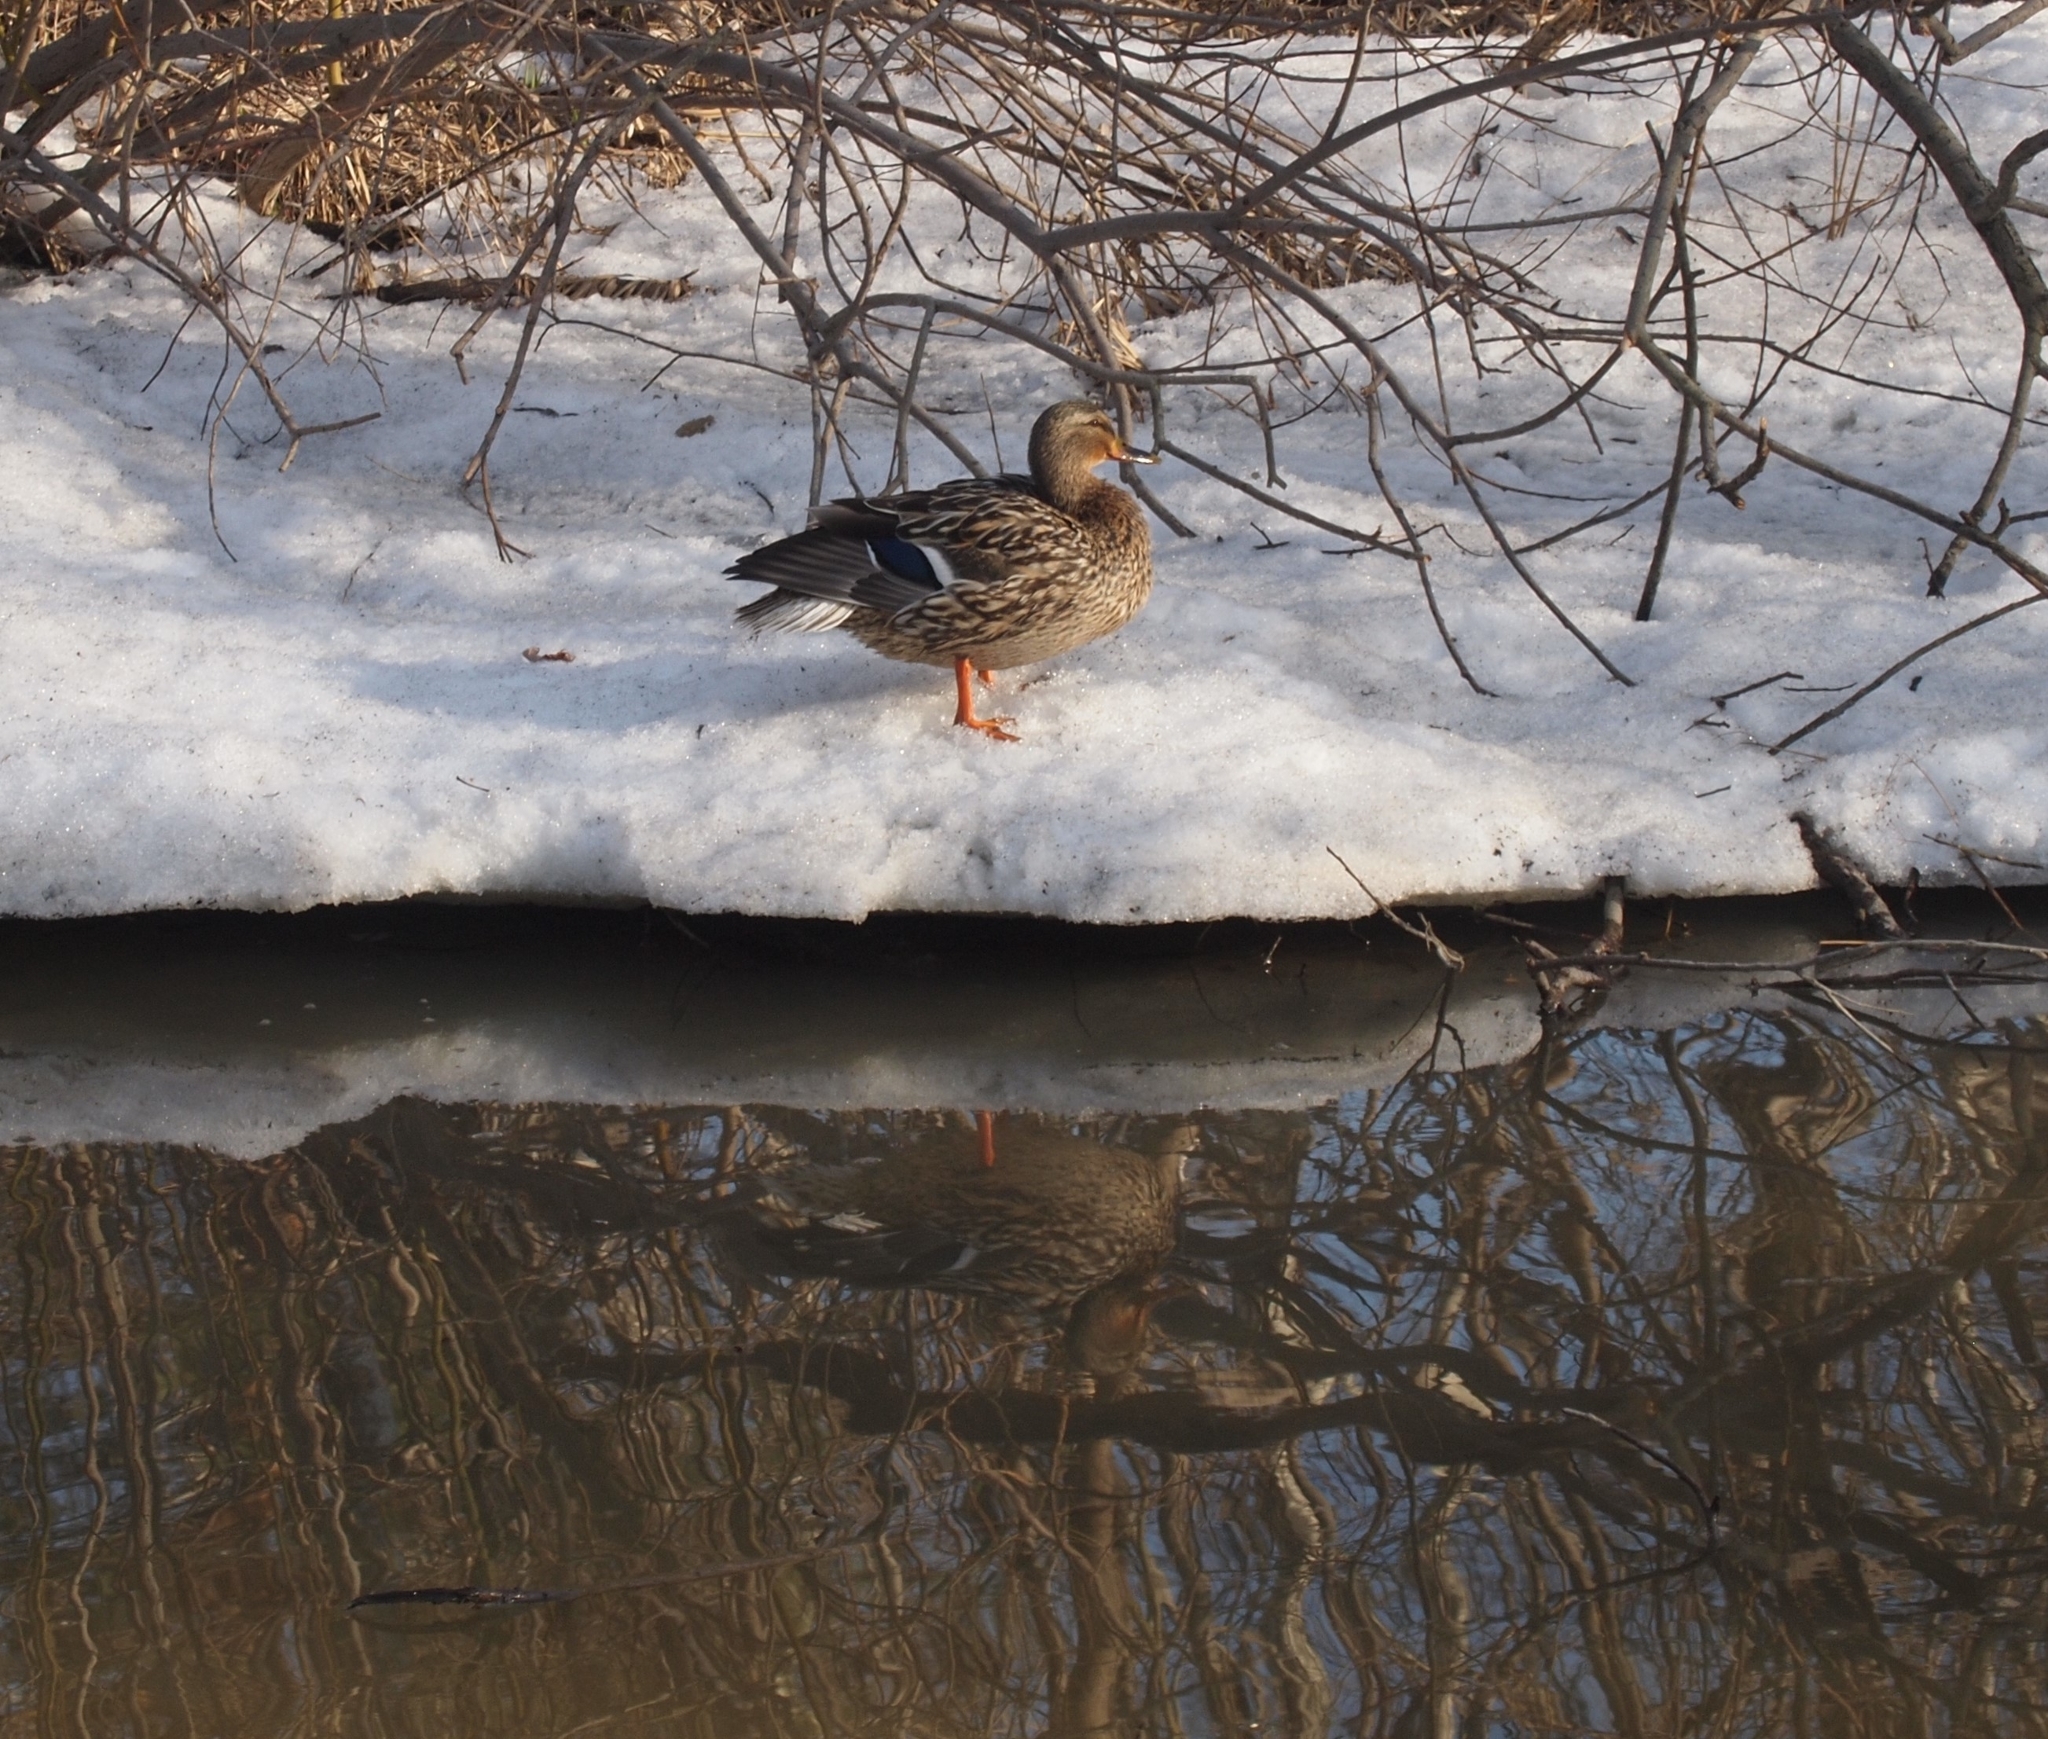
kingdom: Animalia
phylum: Chordata
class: Aves
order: Anseriformes
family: Anatidae
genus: Anas
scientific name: Anas platyrhynchos
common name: Mallard
